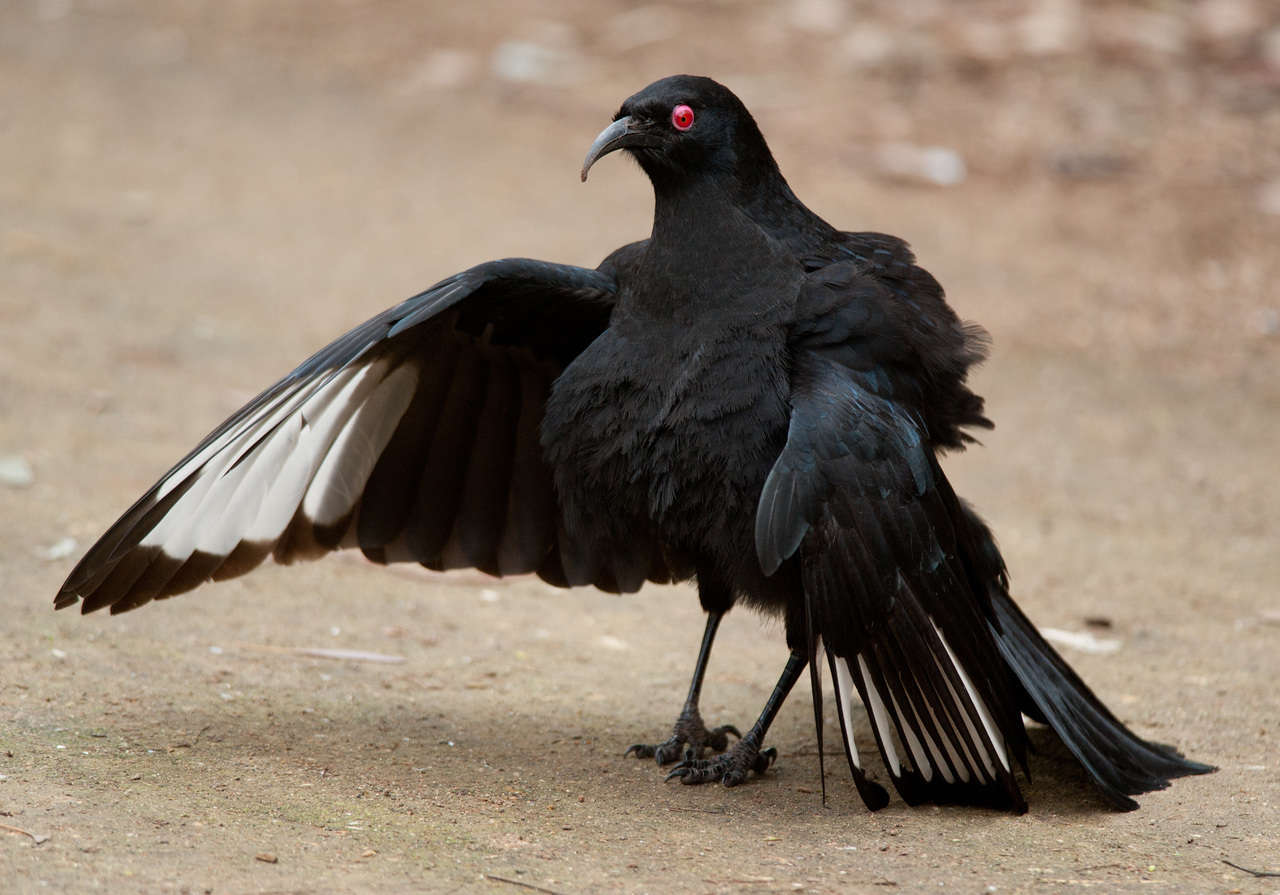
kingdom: Animalia
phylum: Chordata
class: Aves
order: Passeriformes
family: Corcoracidae
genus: Corcorax
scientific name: Corcorax melanoramphos
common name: White-winged chough
